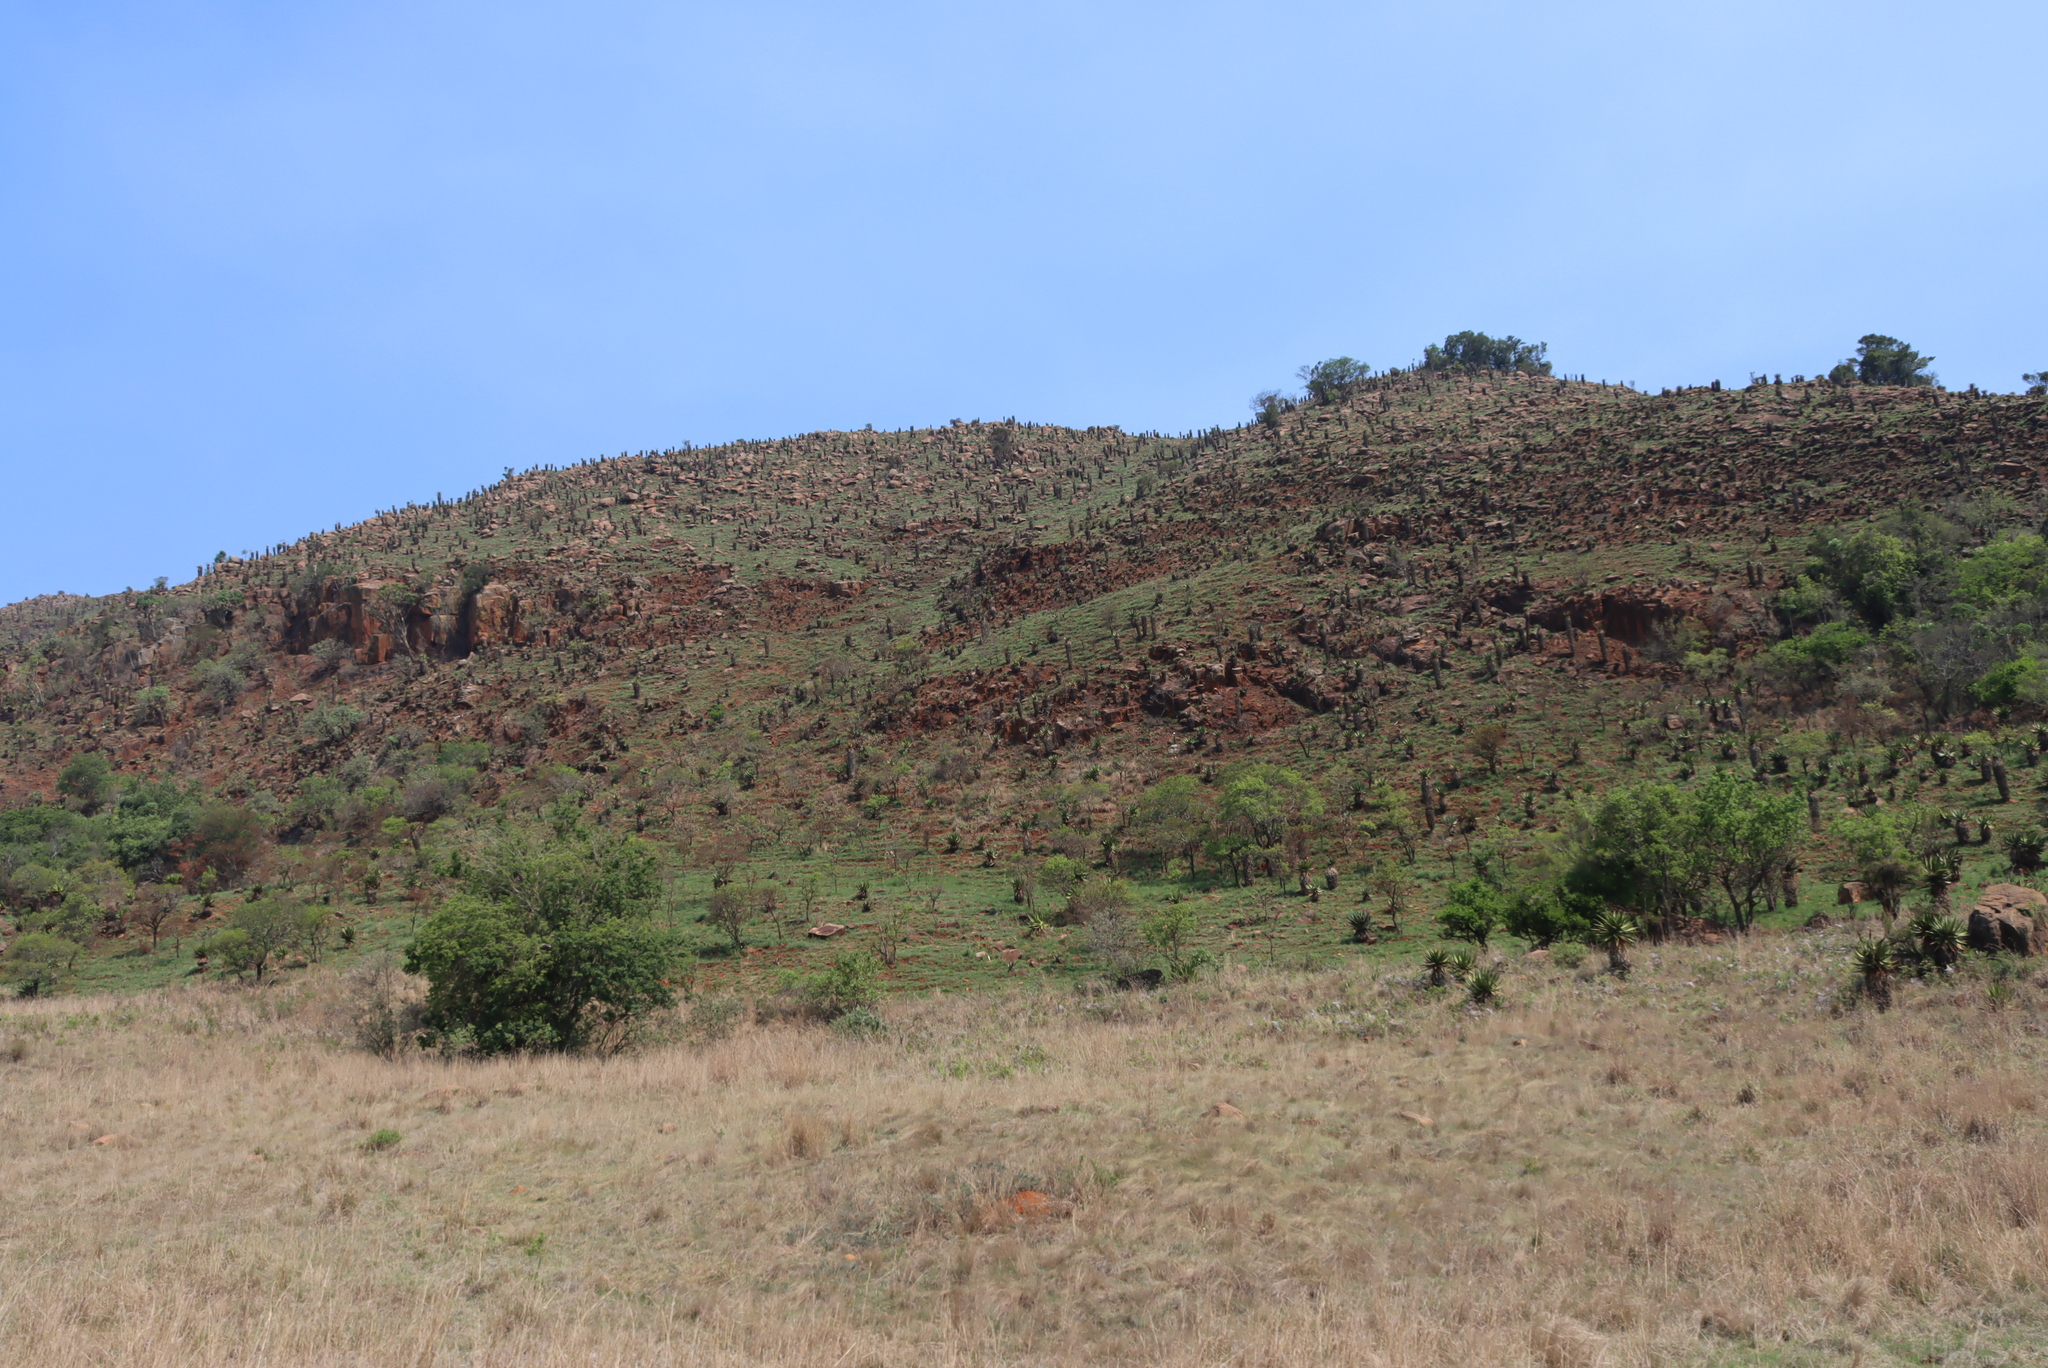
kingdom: Plantae
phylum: Tracheophyta
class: Liliopsida
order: Asparagales
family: Asphodelaceae
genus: Aloe
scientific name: Aloe marlothii
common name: Flat-flowered aloe
